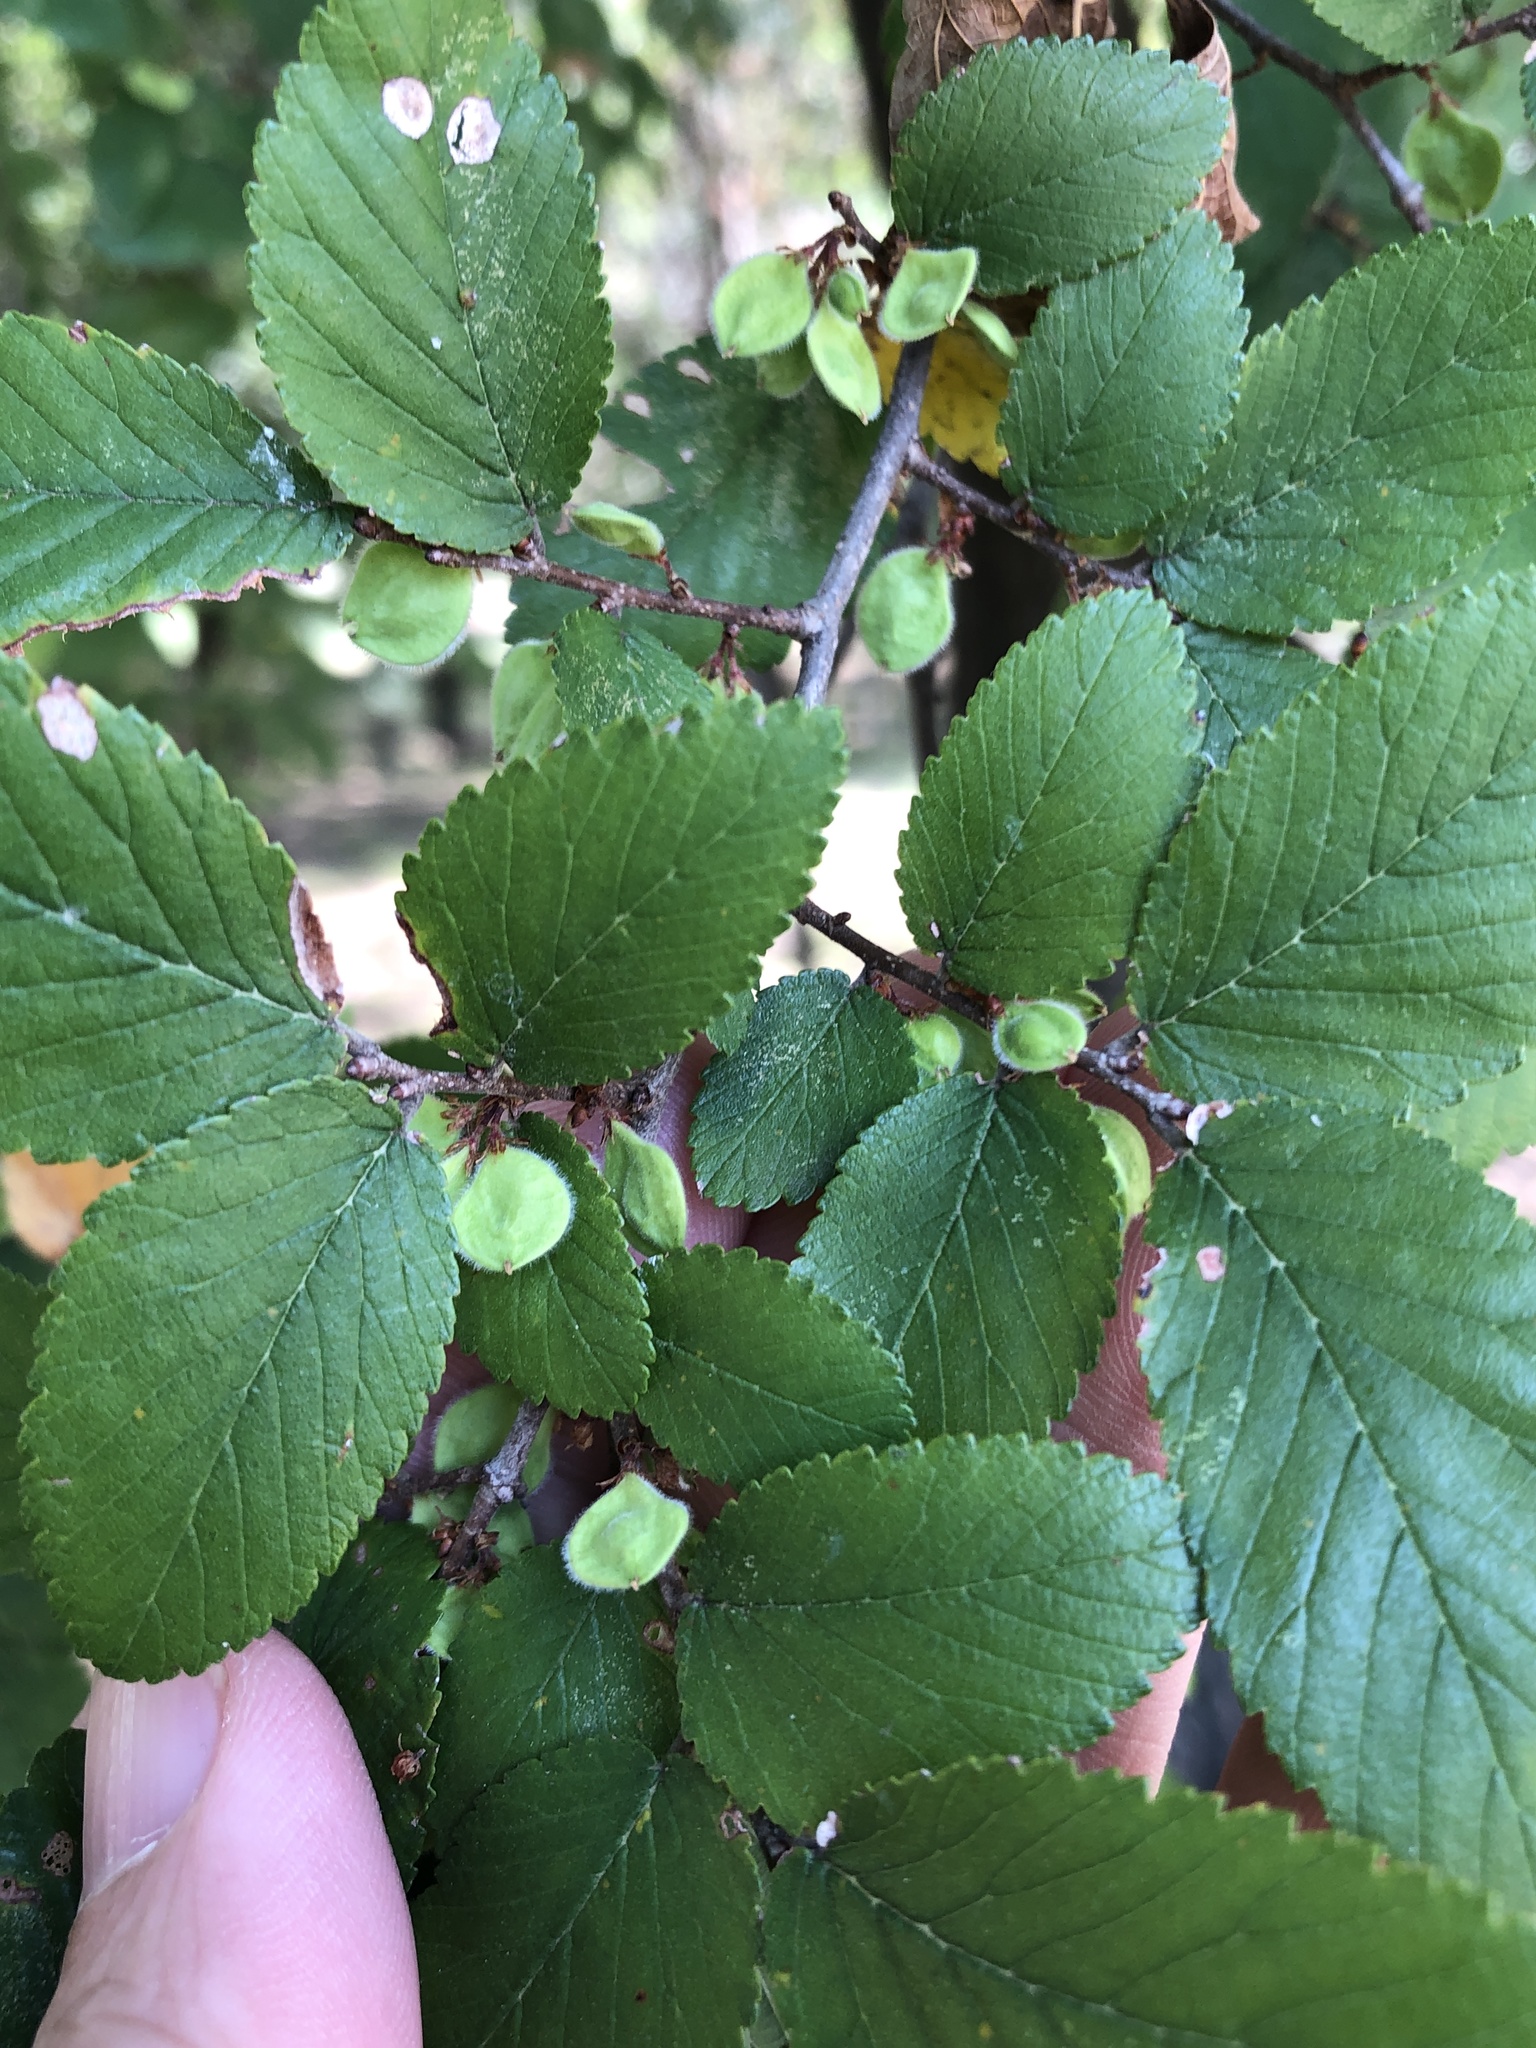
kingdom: Plantae
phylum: Tracheophyta
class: Magnoliopsida
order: Rosales
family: Ulmaceae
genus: Ulmus
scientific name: Ulmus crassifolia
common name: Basket elm
